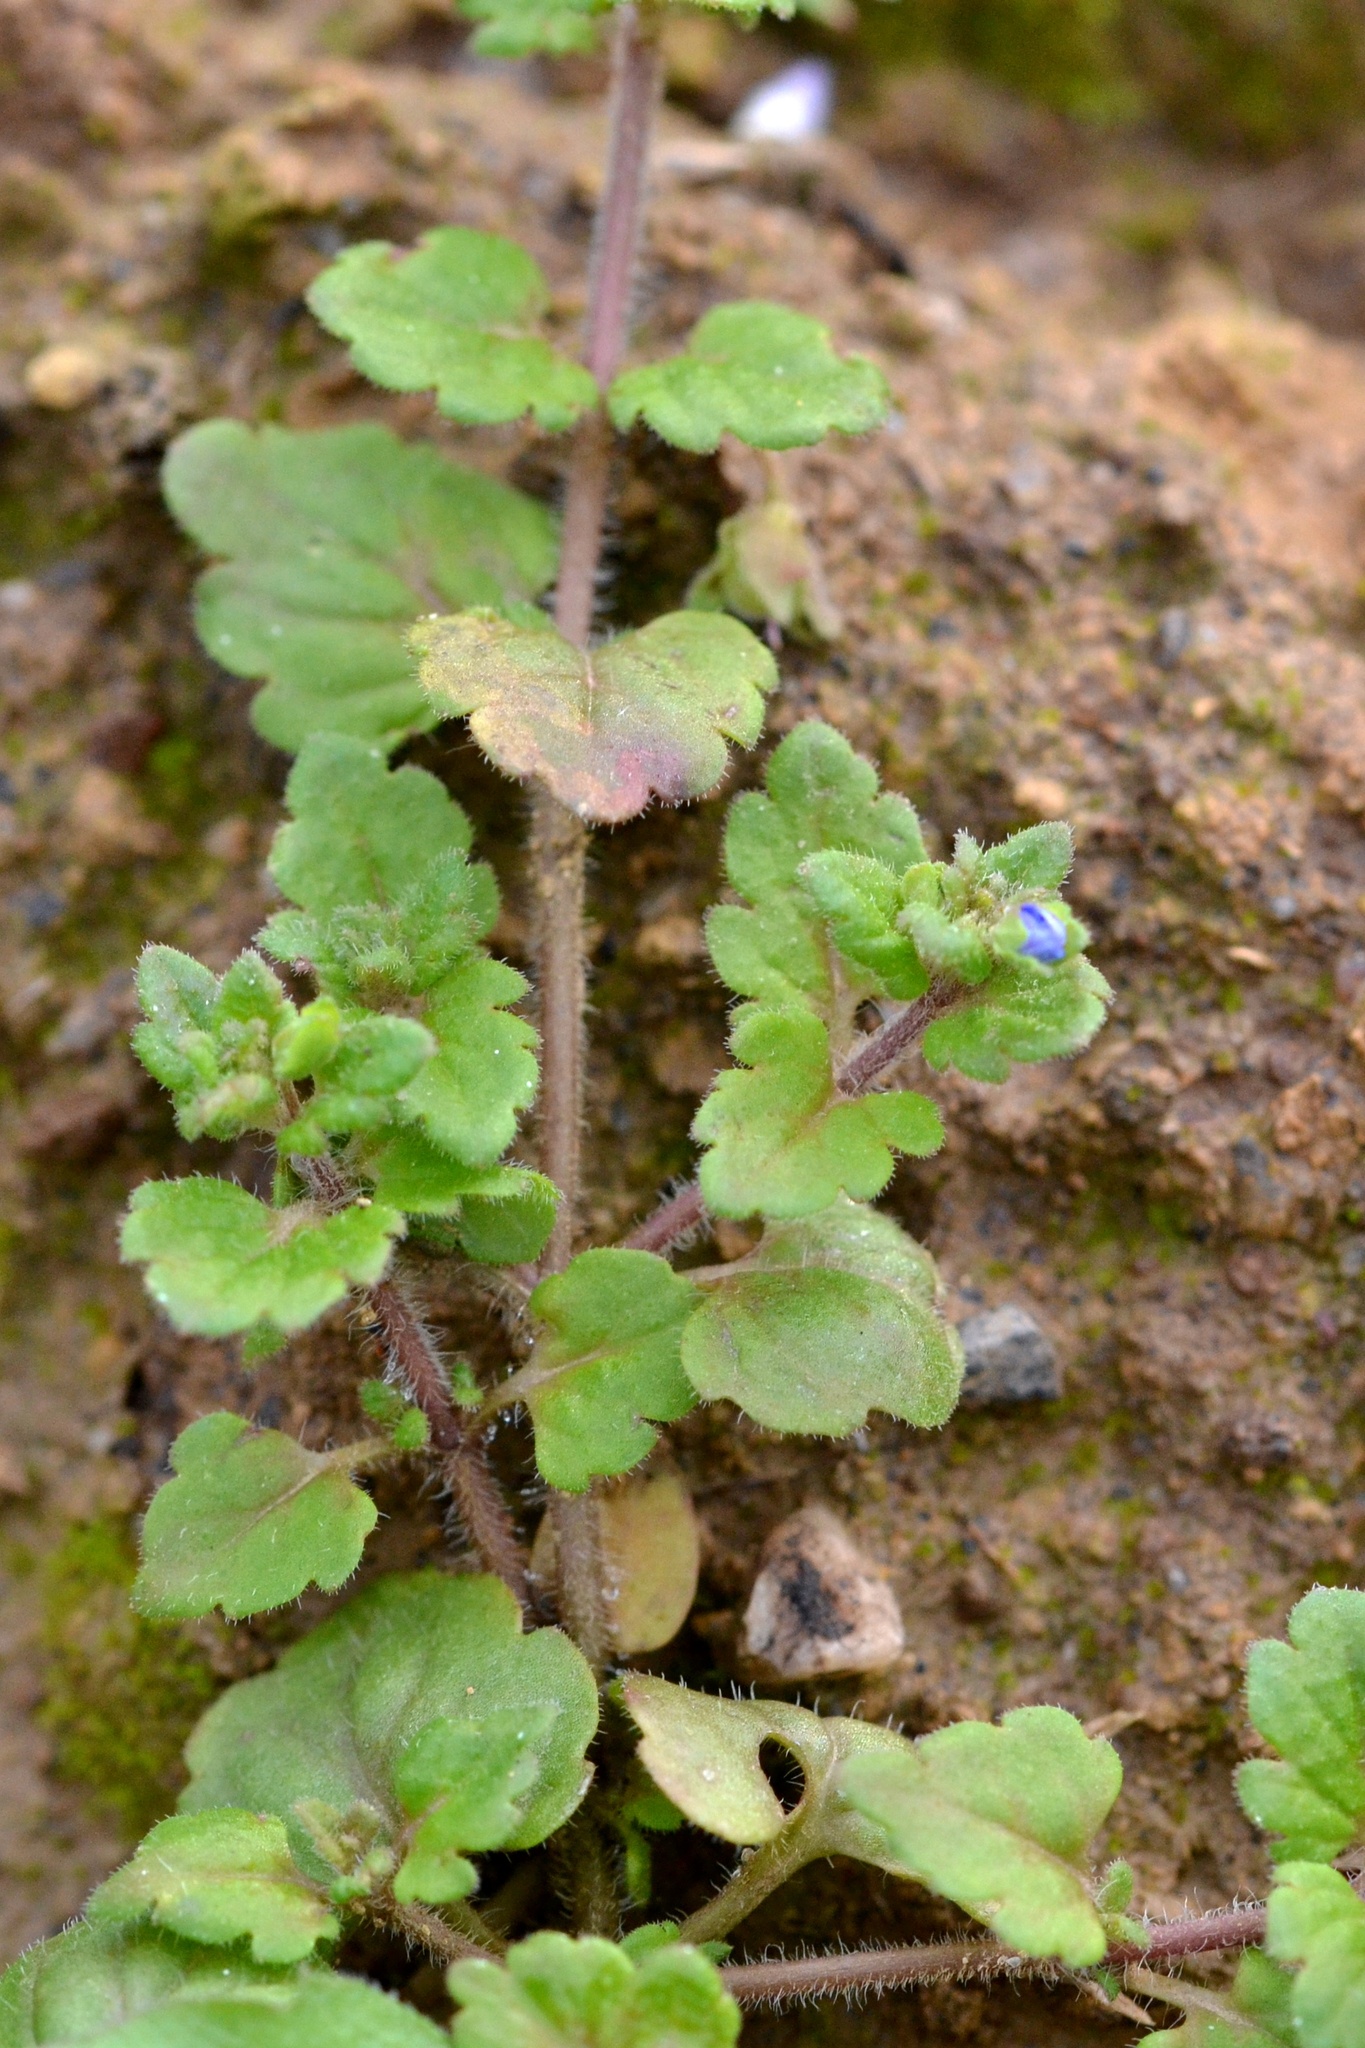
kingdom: Plantae
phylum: Tracheophyta
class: Magnoliopsida
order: Lamiales
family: Plantaginaceae
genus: Veronica
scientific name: Veronica polita
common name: Grey field-speedwell
